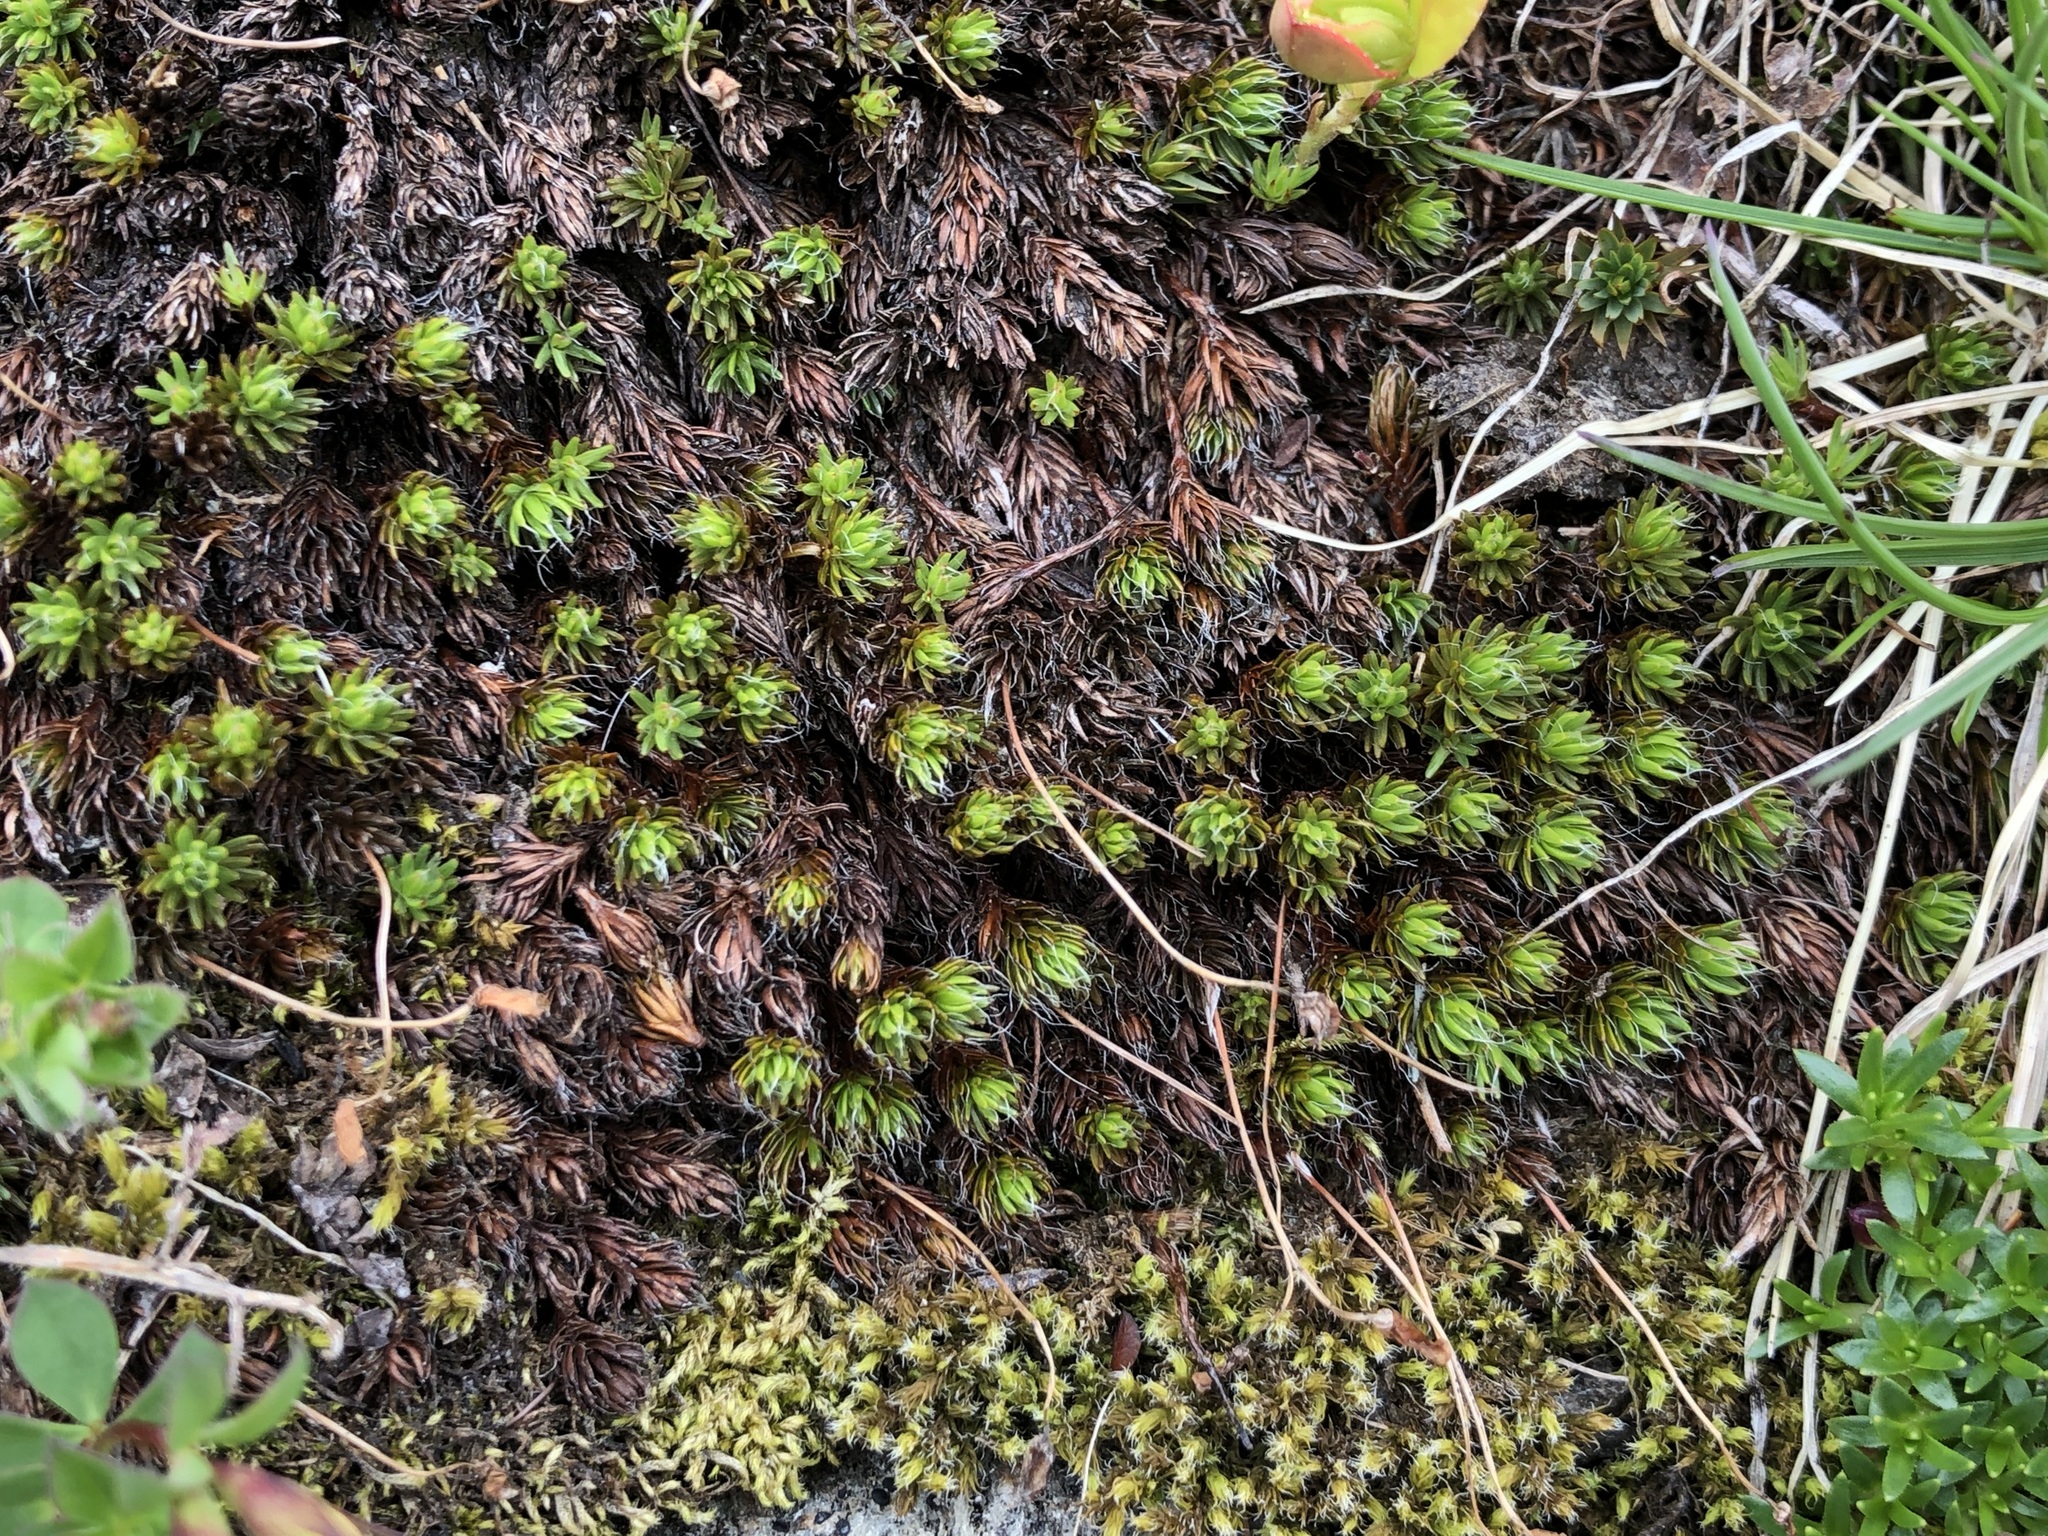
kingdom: Plantae
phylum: Bryophyta
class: Polytrichopsida
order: Polytrichales
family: Polytrichaceae
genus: Polytrichum
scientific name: Polytrichum piliferum
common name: Bristly haircap
